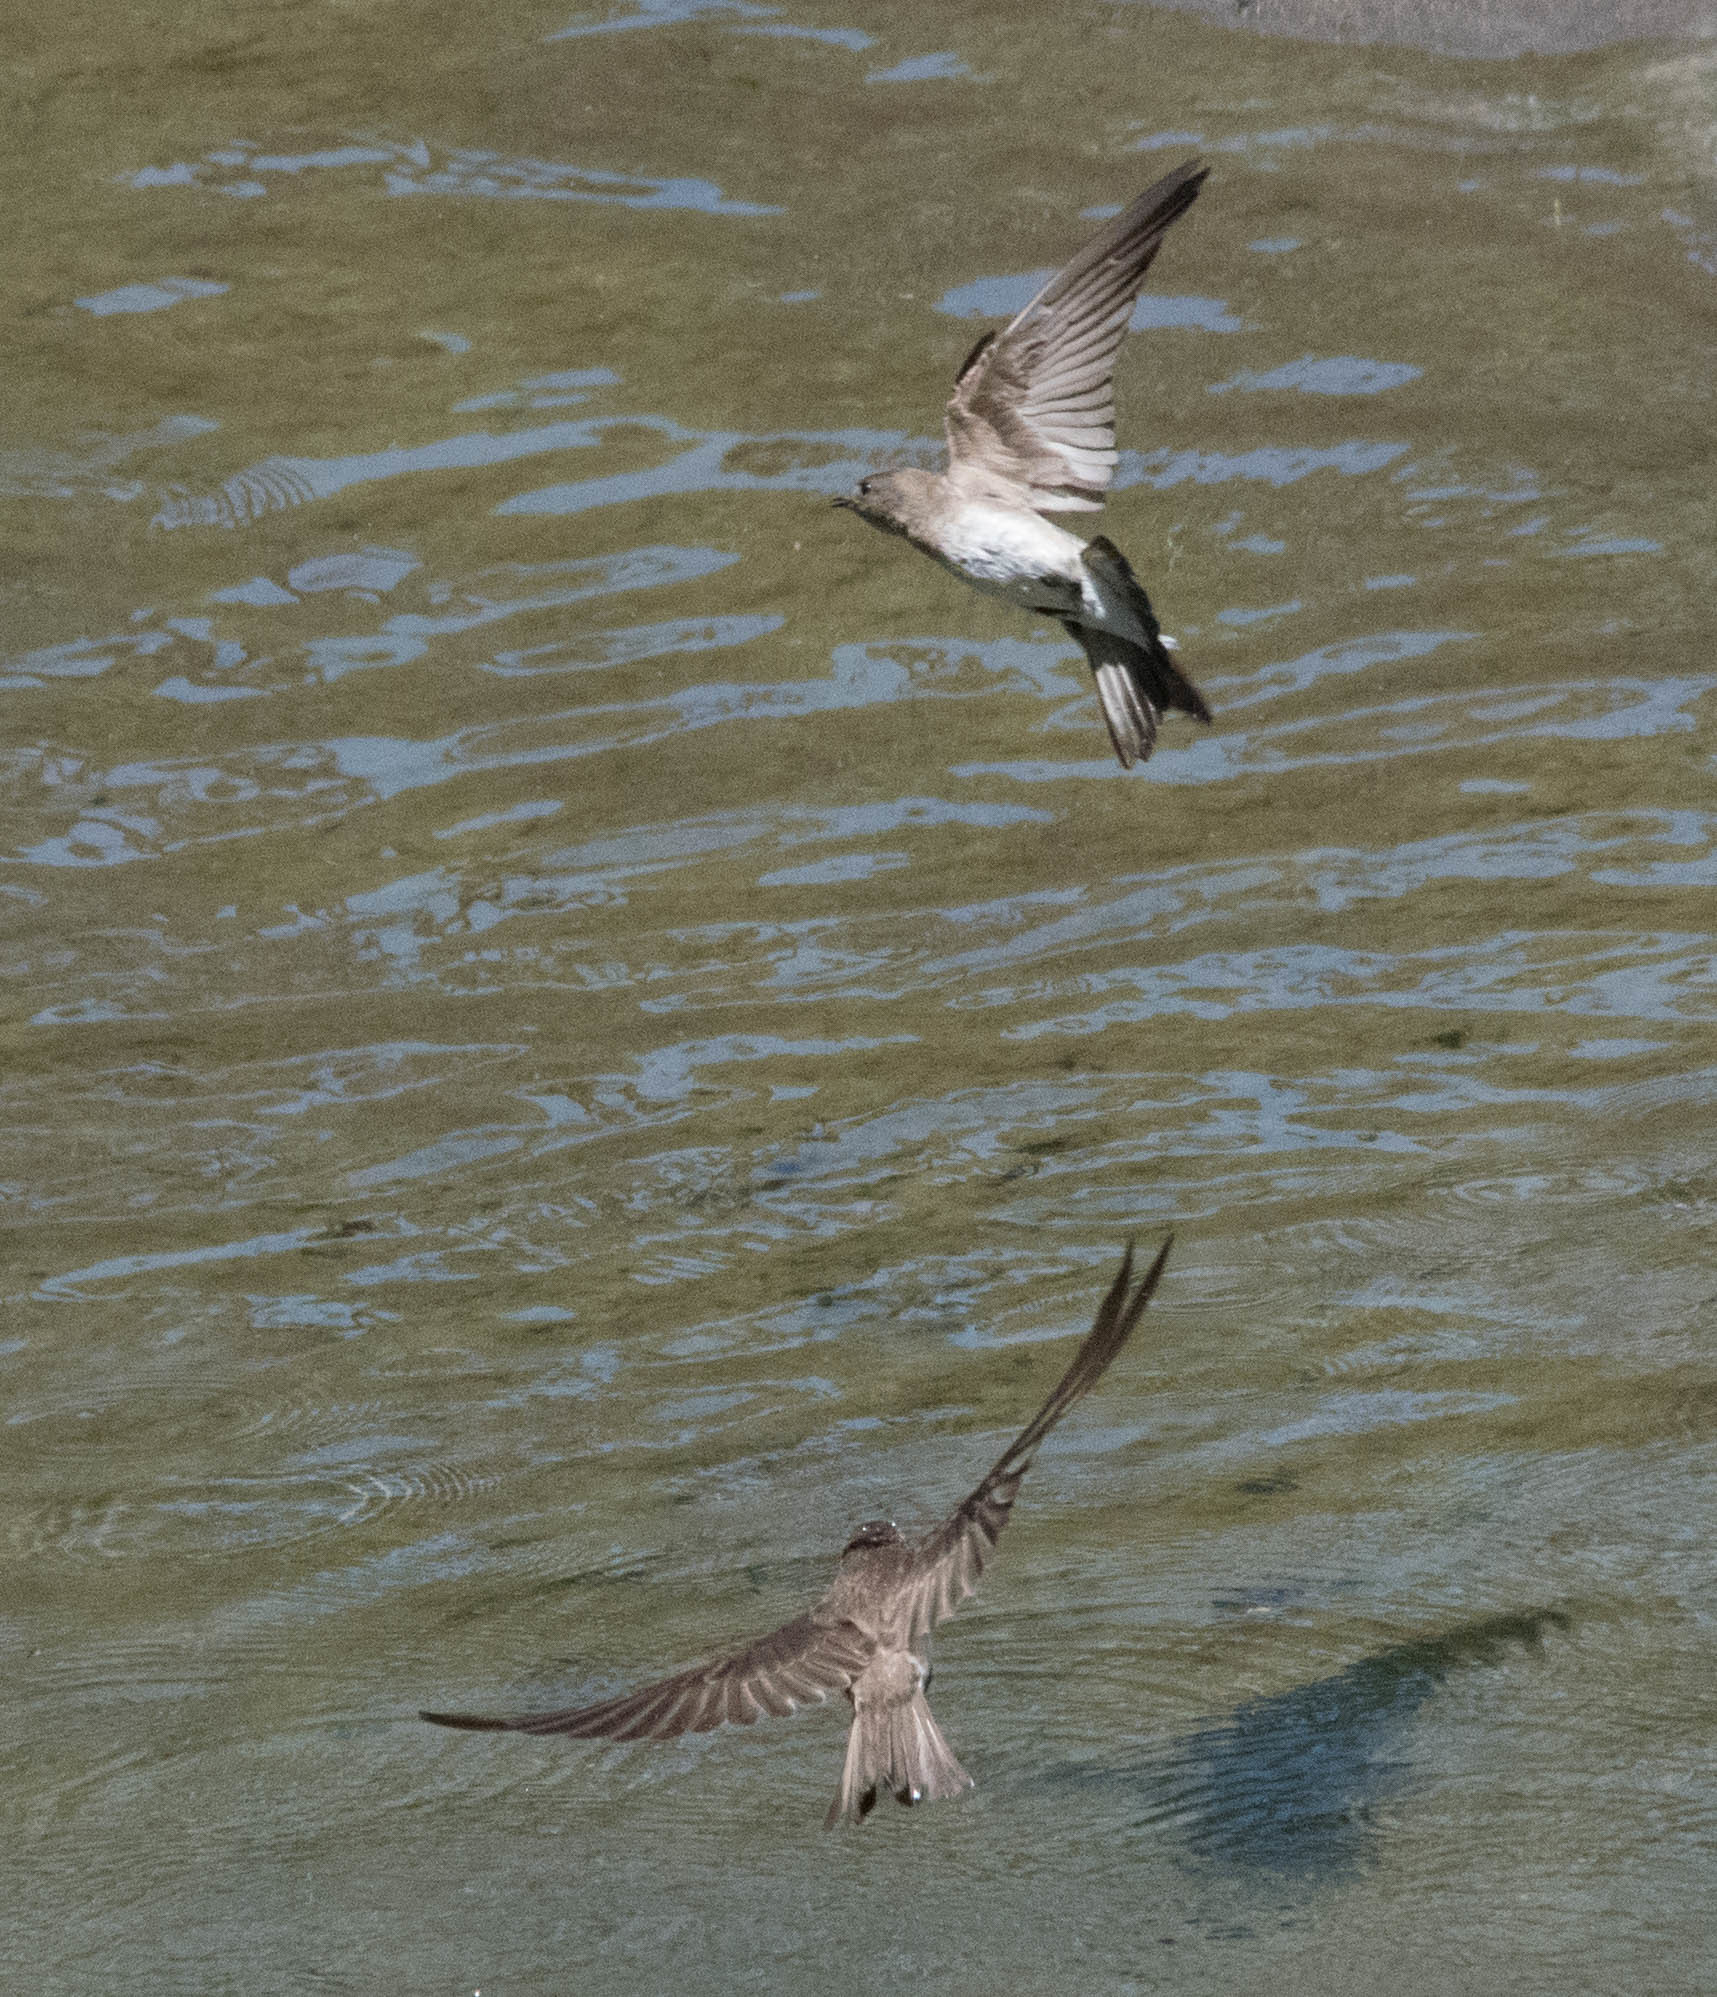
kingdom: Animalia
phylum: Chordata
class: Aves
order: Passeriformes
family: Hirundinidae
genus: Stelgidopteryx
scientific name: Stelgidopteryx serripennis
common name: Northern rough-winged swallow
